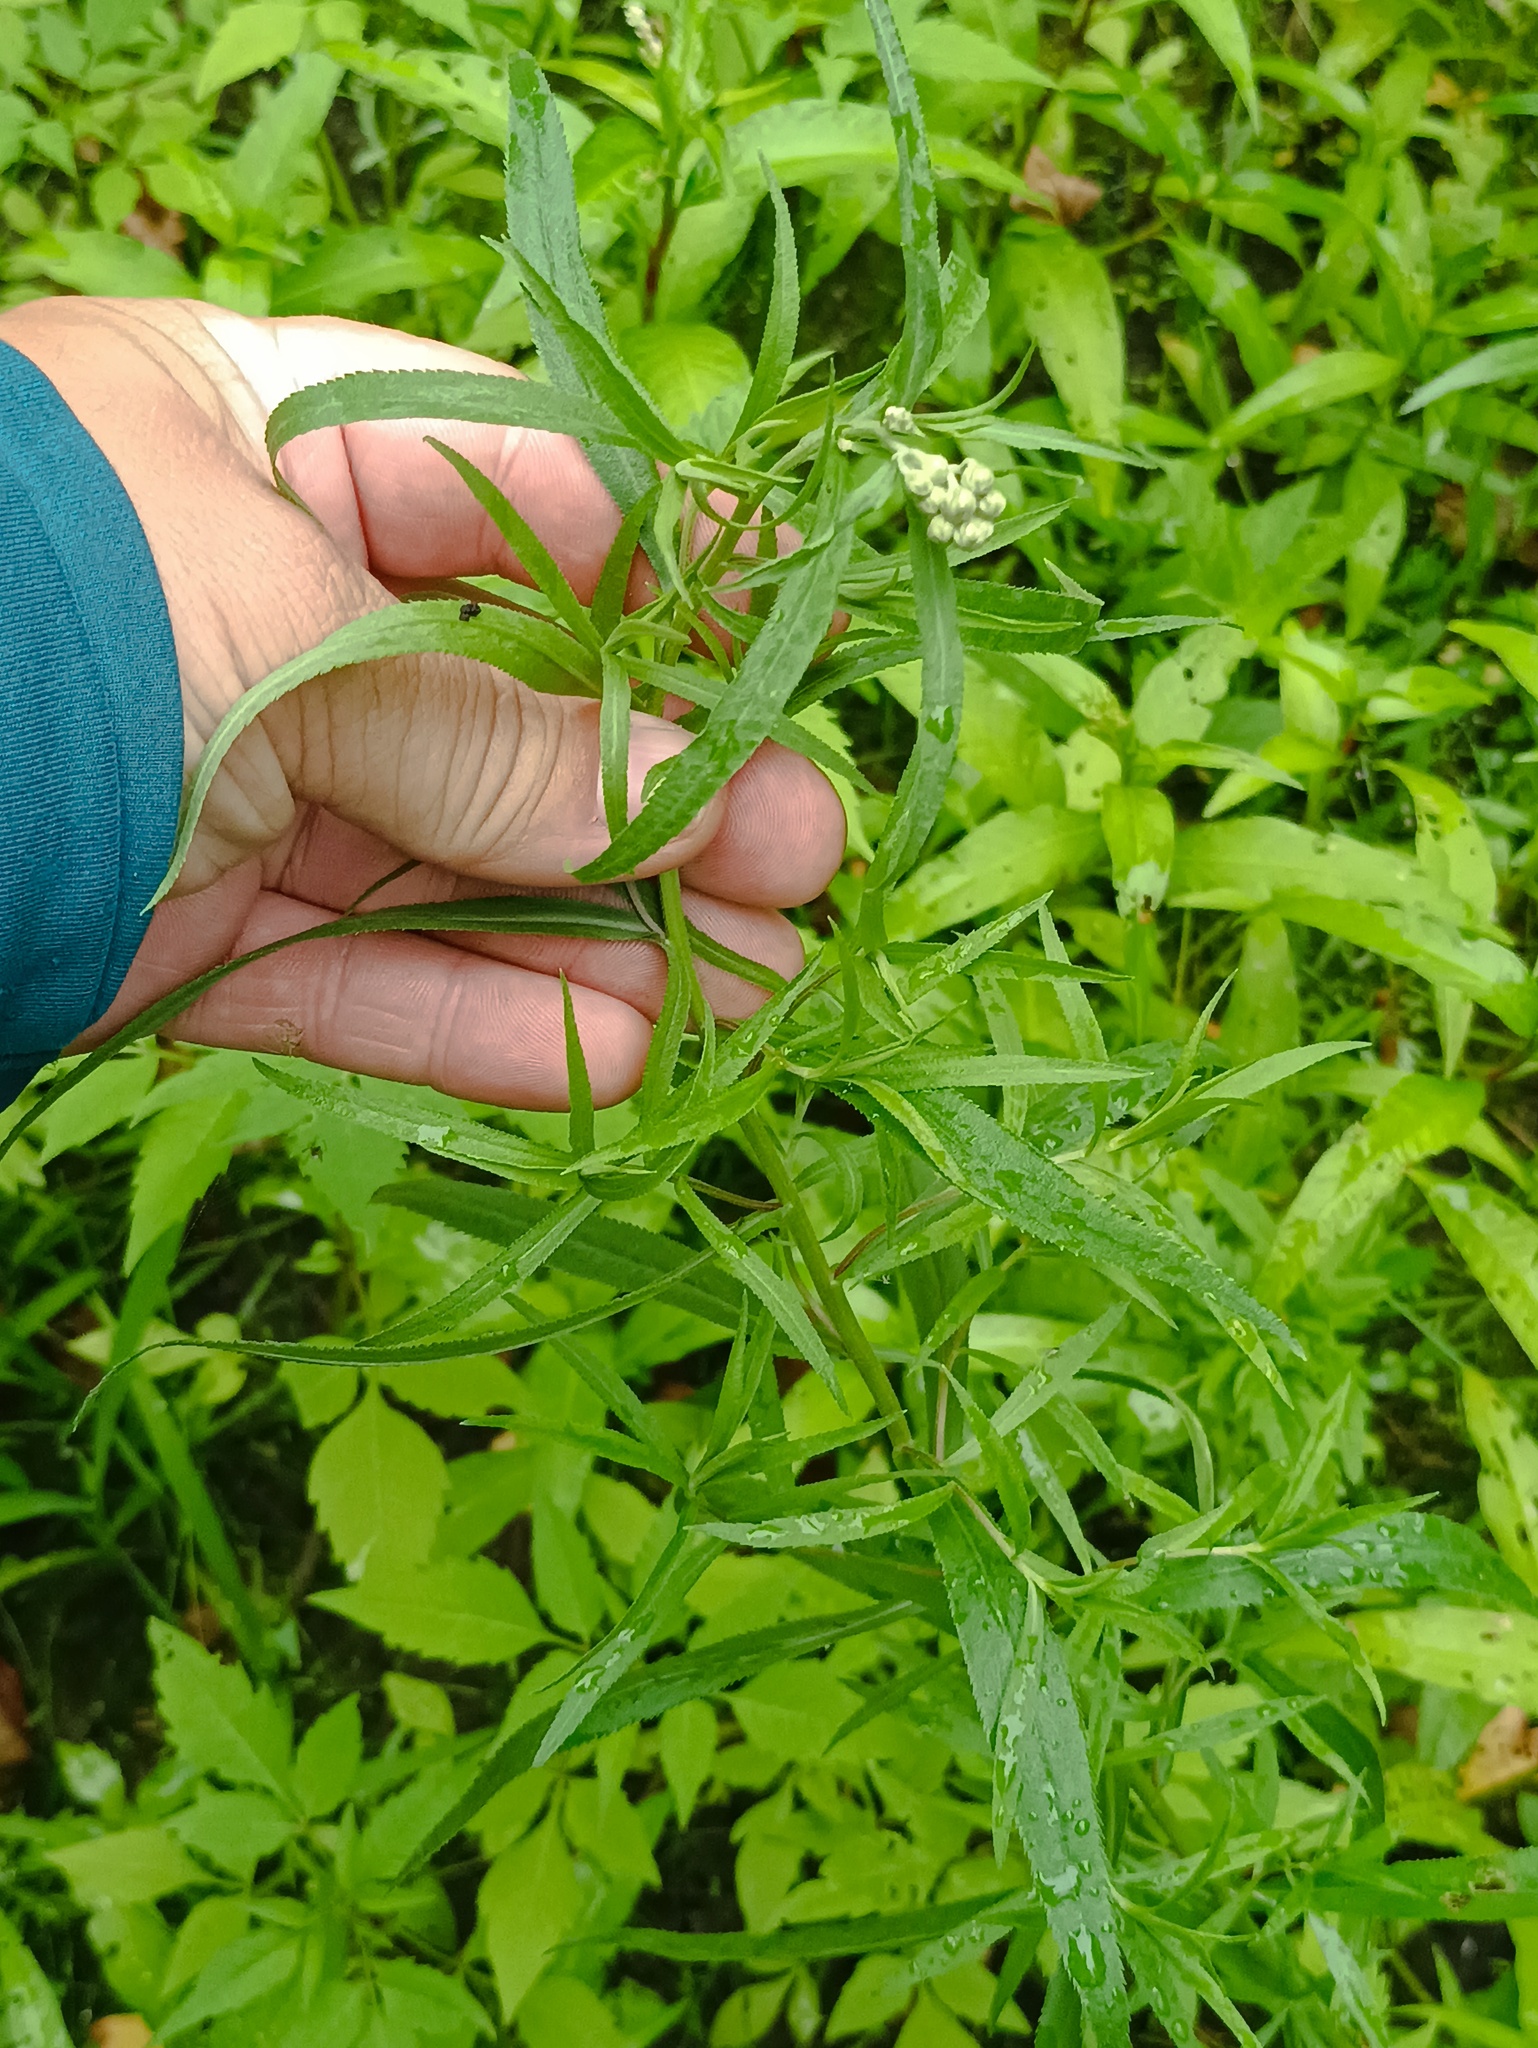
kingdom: Plantae
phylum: Tracheophyta
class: Magnoliopsida
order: Asterales
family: Asteraceae
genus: Achillea
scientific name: Achillea salicifolia
